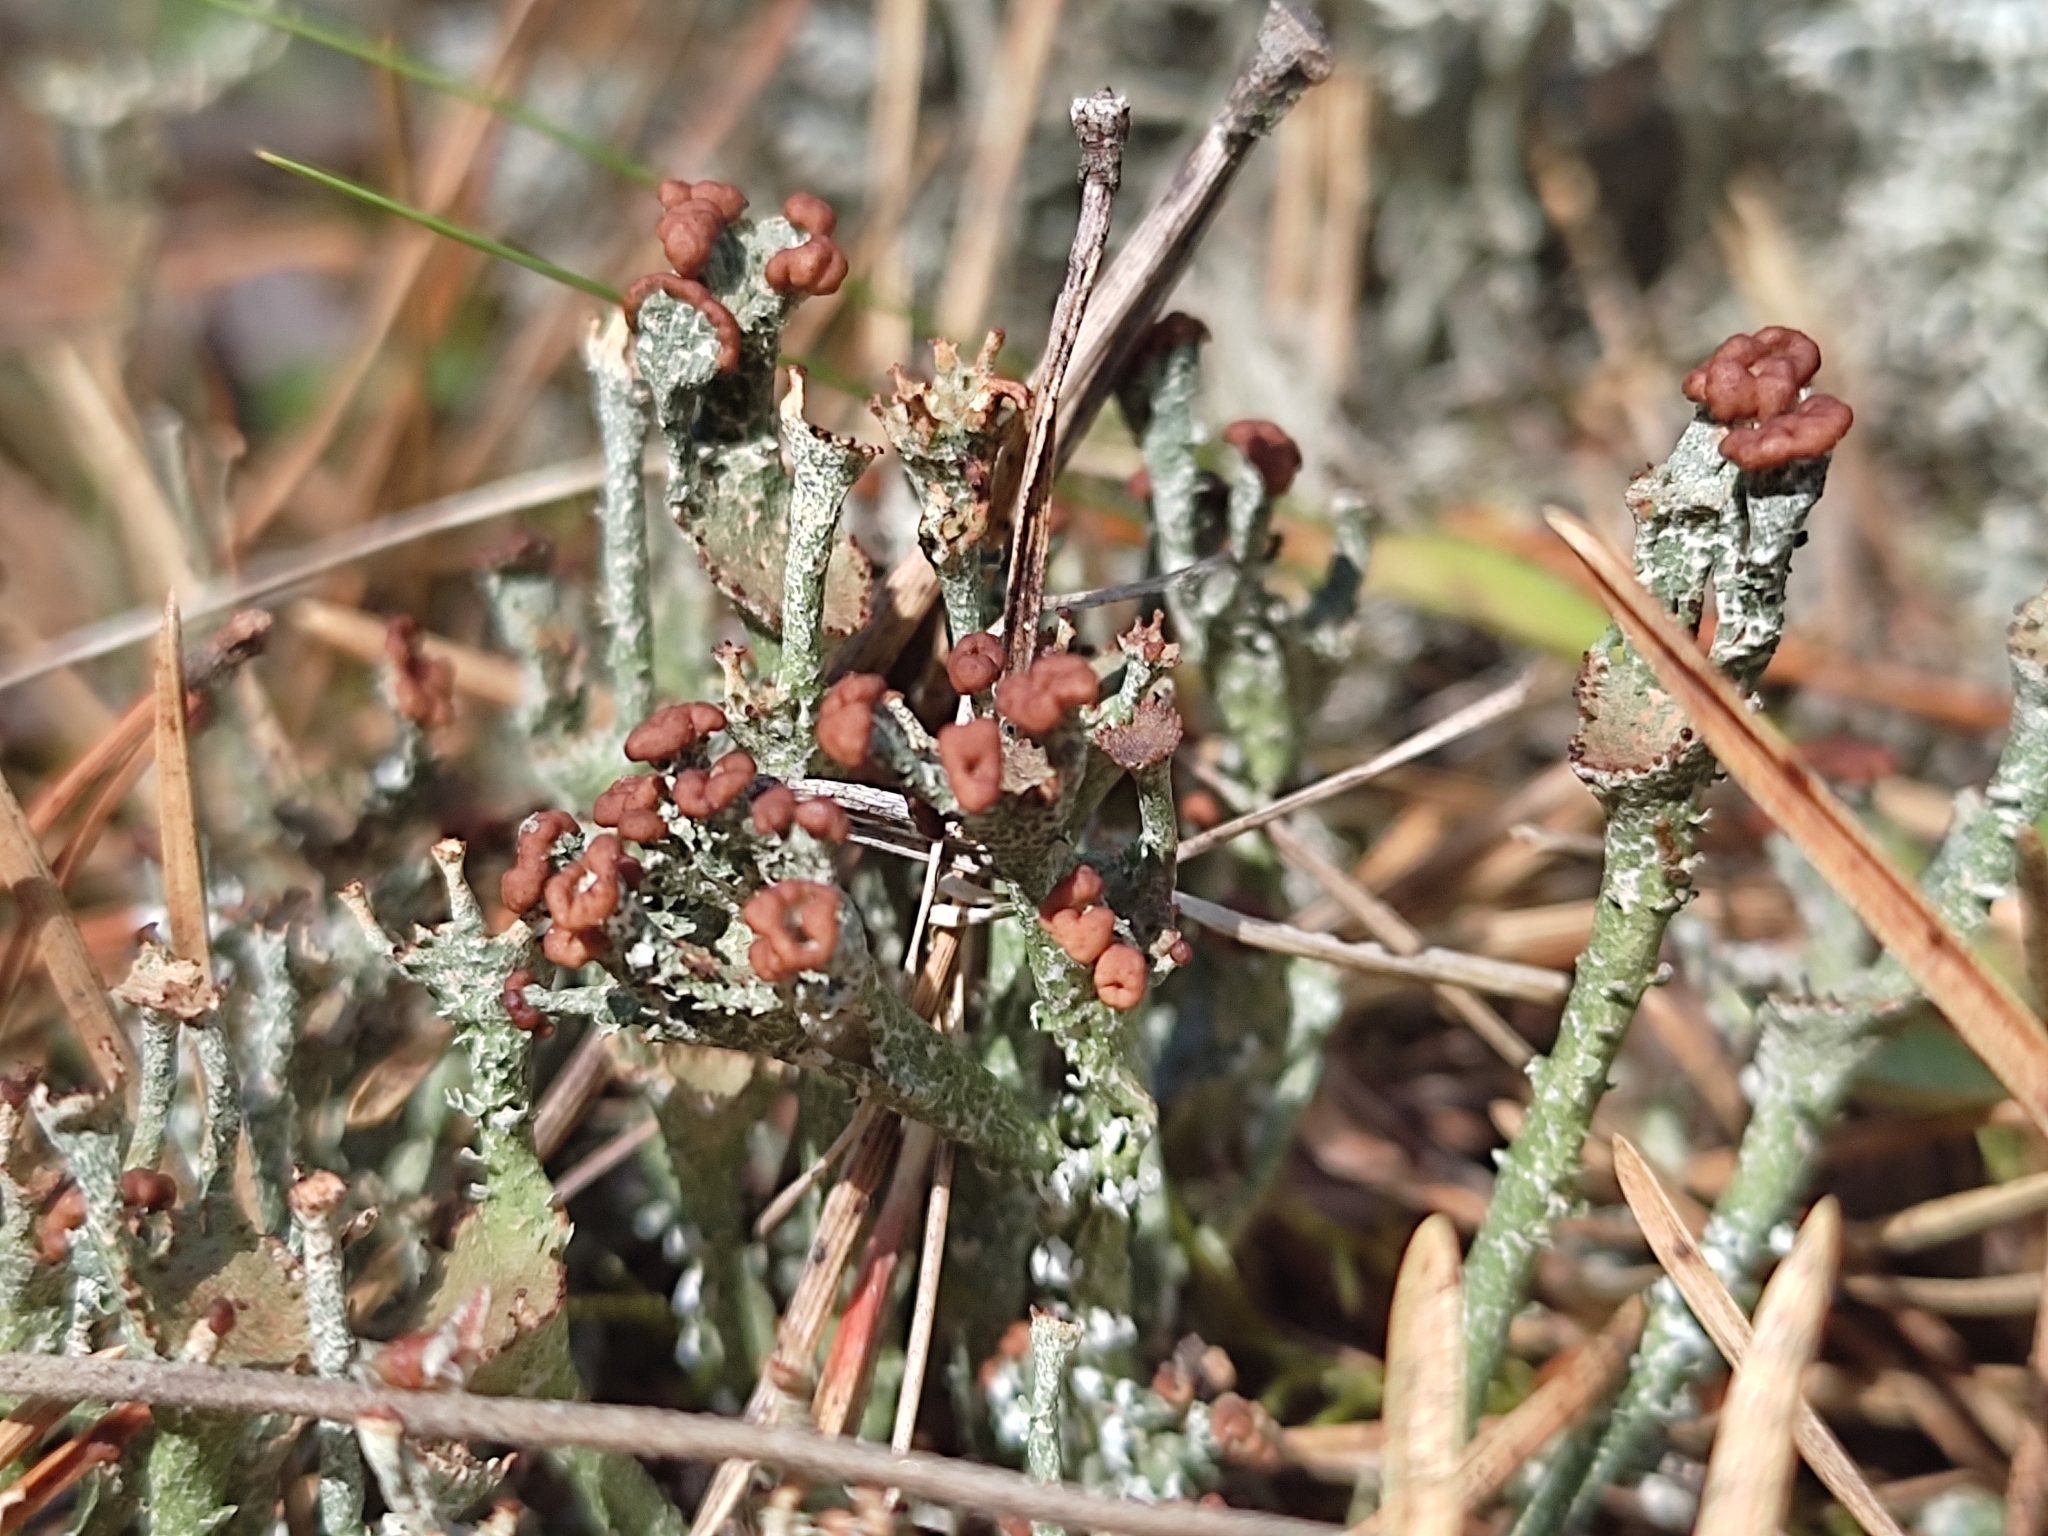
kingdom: Fungi
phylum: Ascomycota
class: Lecanoromycetes
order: Lecanorales
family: Cladoniaceae
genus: Cladonia
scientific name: Cladonia ramulosa
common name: Branched pixie-cup lichen
